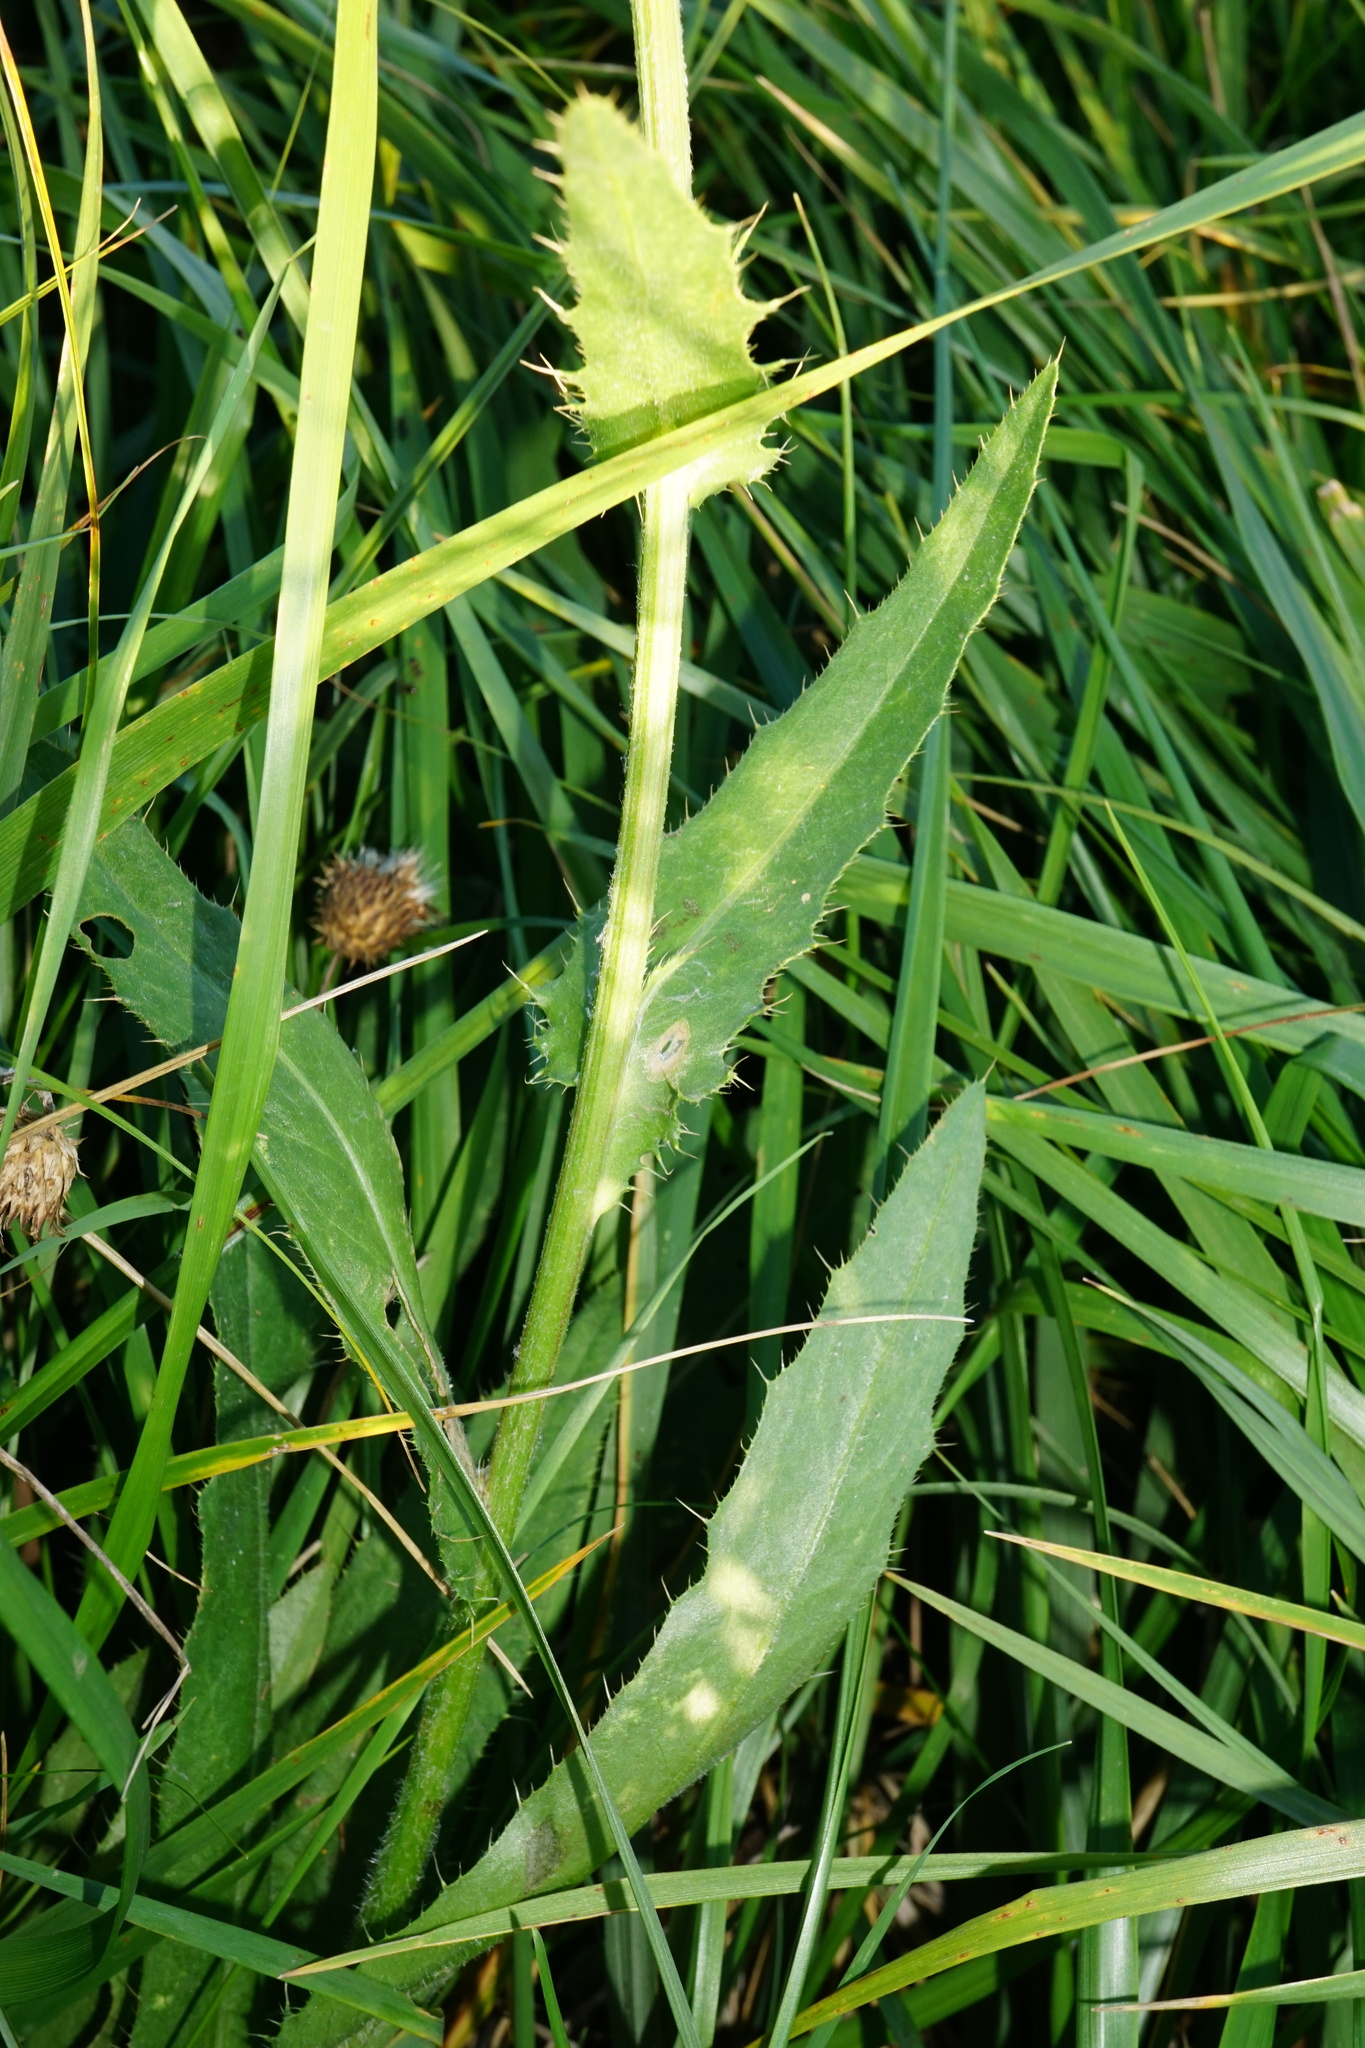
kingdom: Plantae
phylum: Tracheophyta
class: Magnoliopsida
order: Asterales
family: Asteraceae
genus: Cirsium
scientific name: Cirsium canum
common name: Queen anne's thistle
